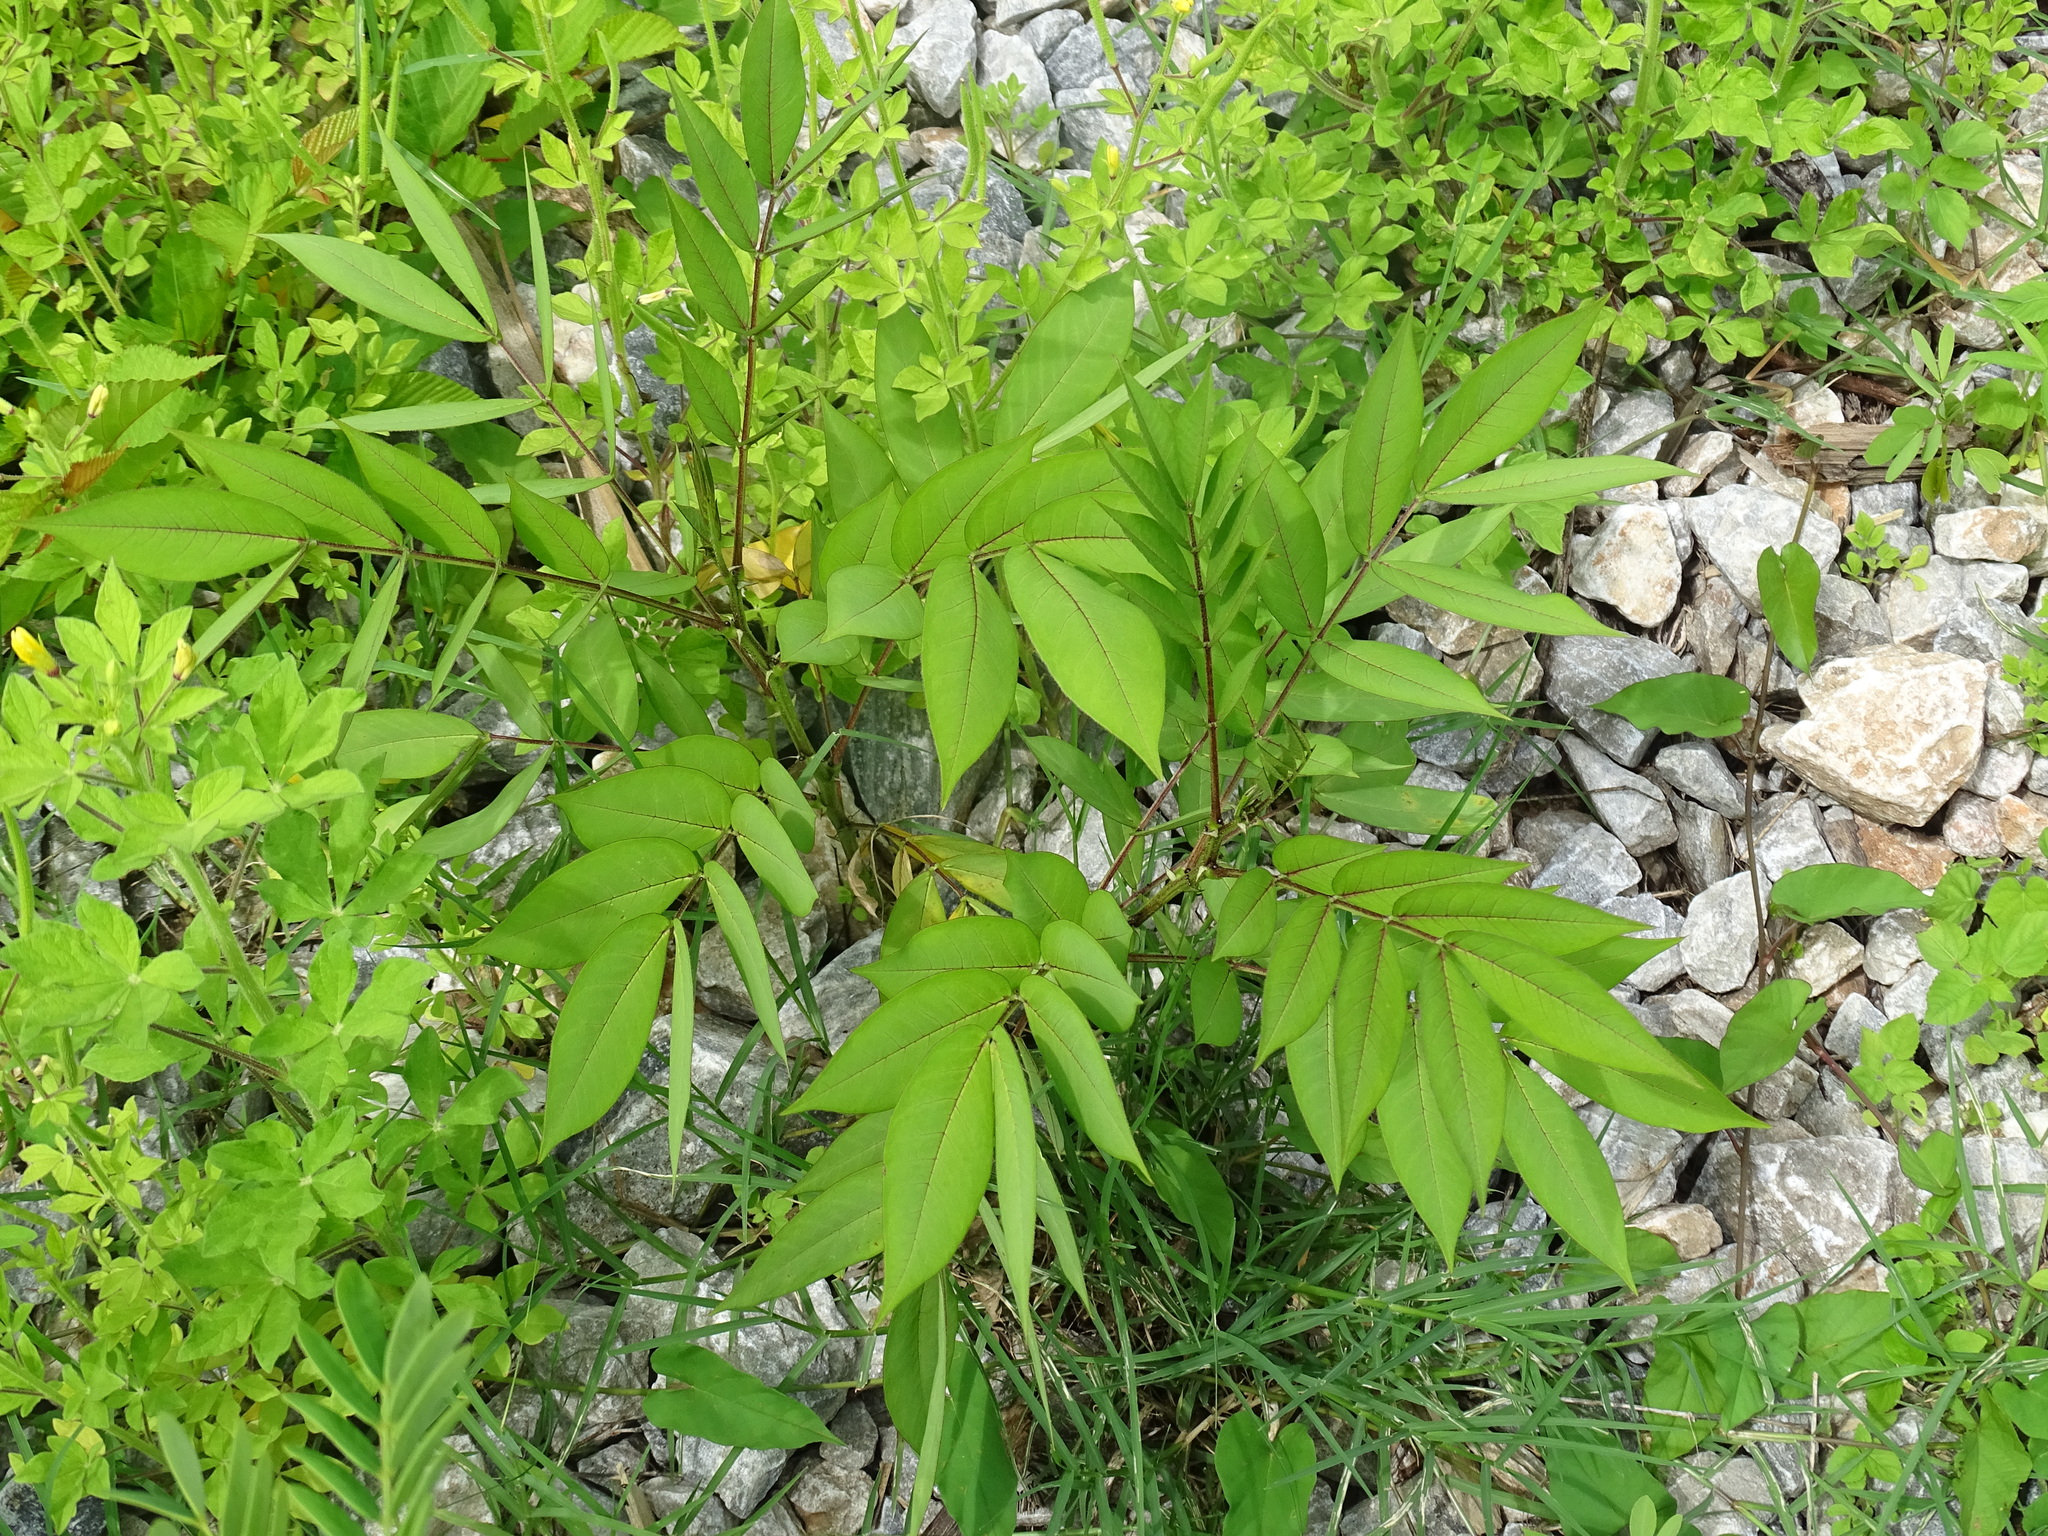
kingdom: Plantae
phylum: Tracheophyta
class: Magnoliopsida
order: Fabales
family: Fabaceae
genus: Senna
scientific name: Senna hirsuta
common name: Woolly senna
